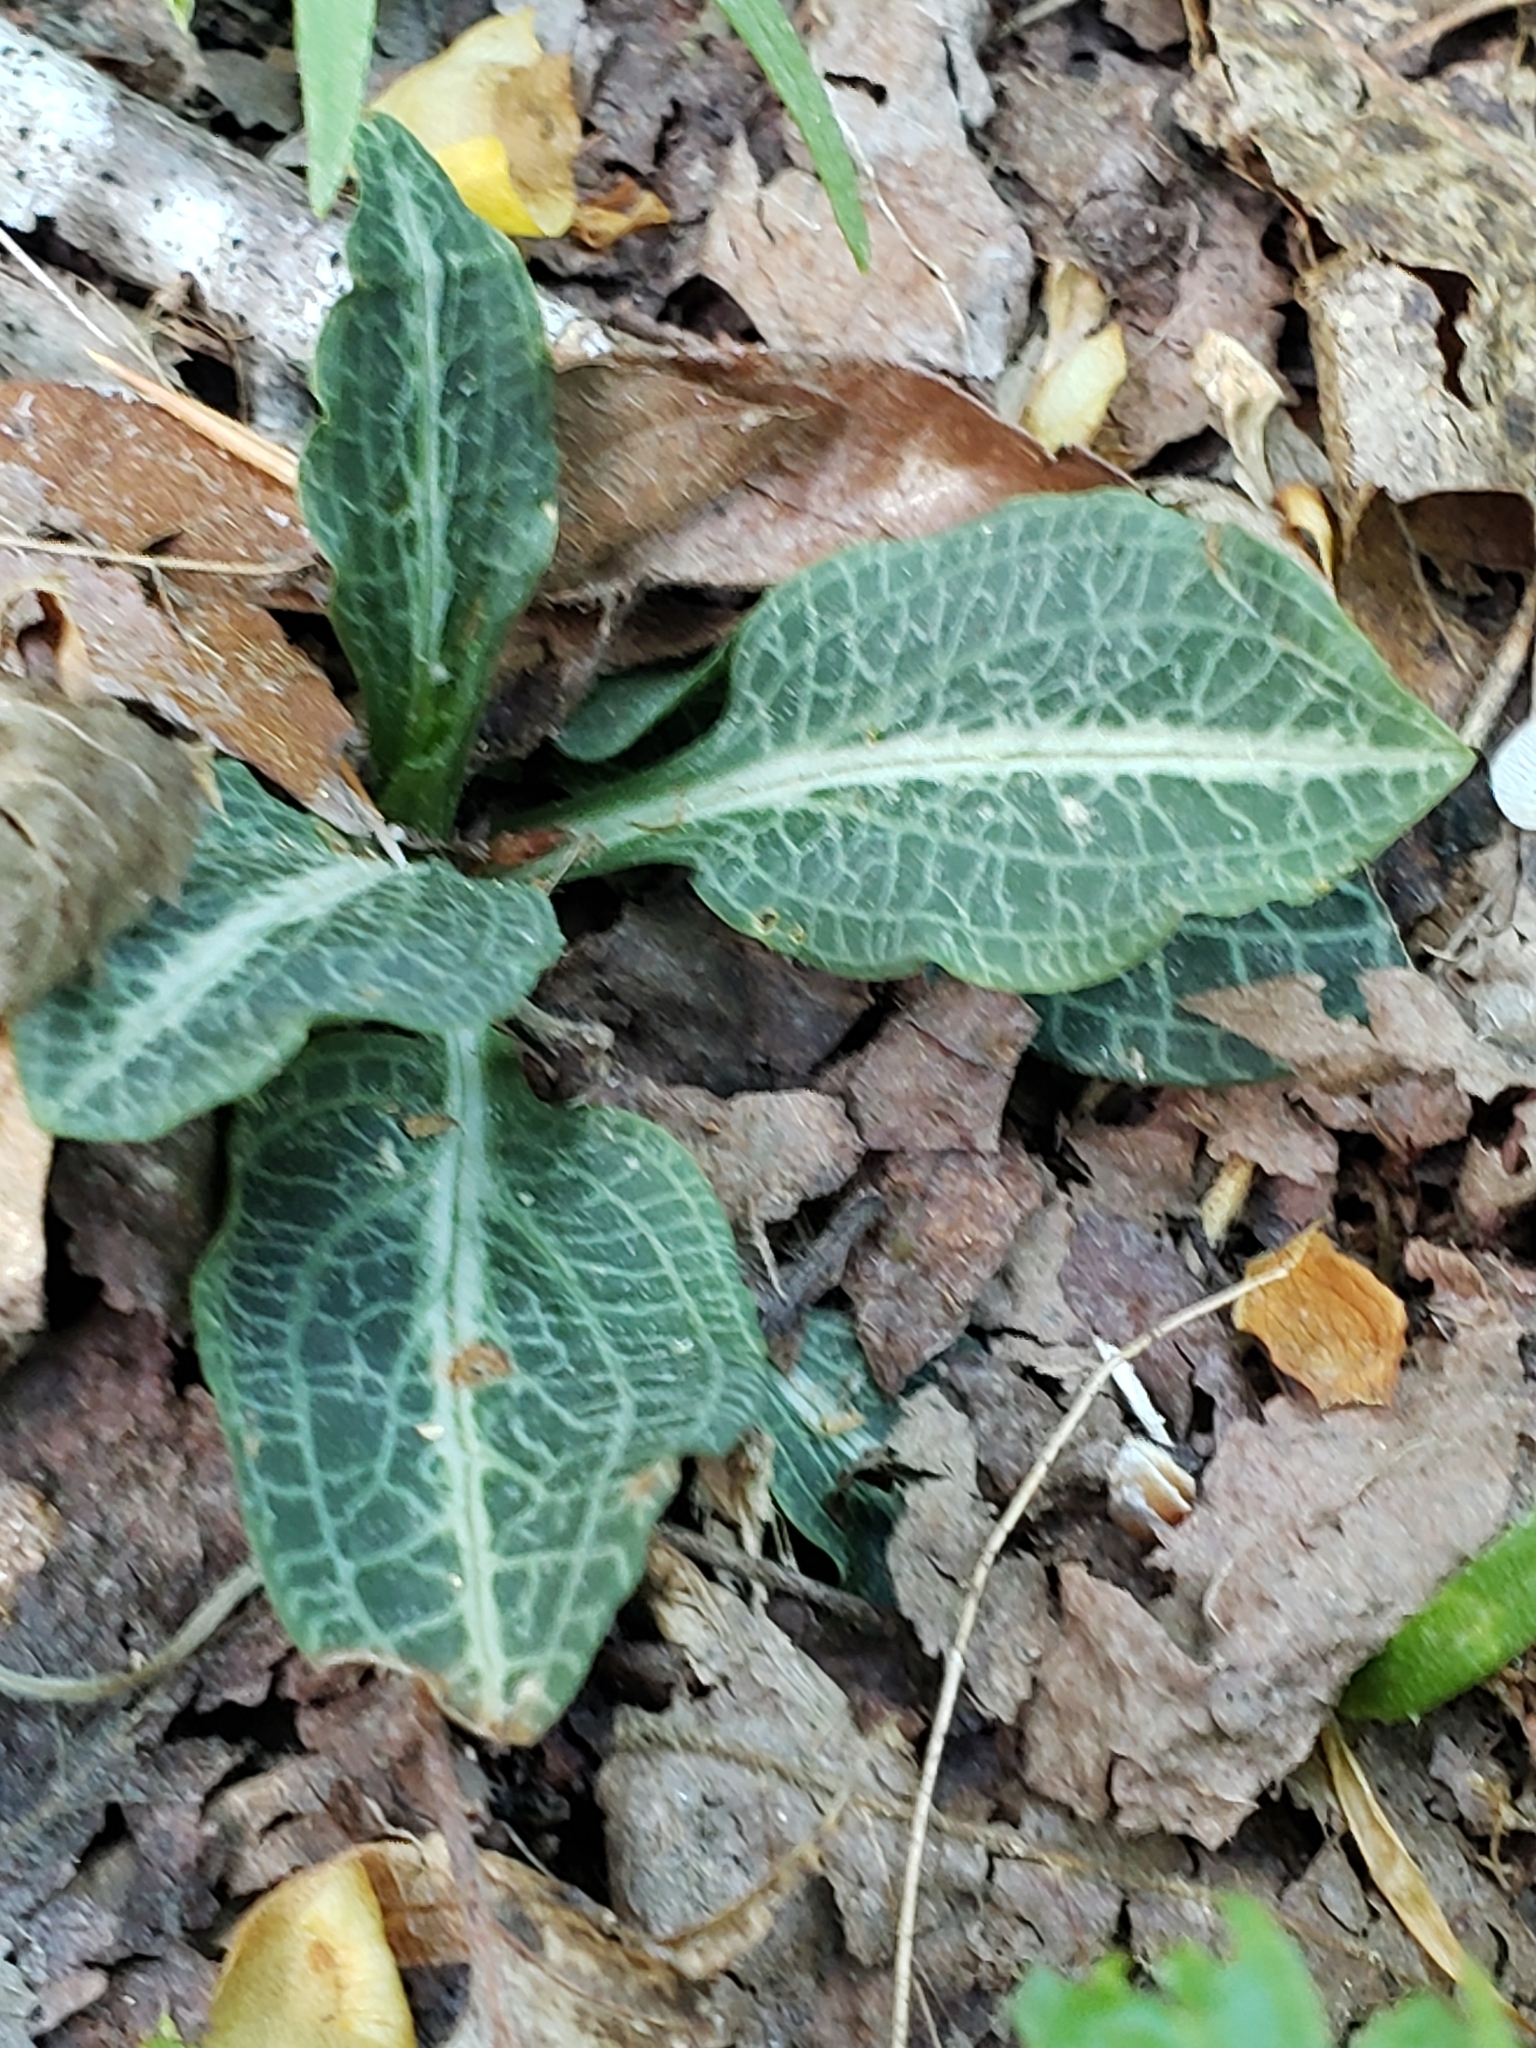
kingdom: Plantae
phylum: Tracheophyta
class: Liliopsida
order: Asparagales
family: Orchidaceae
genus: Goodyera
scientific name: Goodyera pubescens
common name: Downy rattlesnake-plantain
